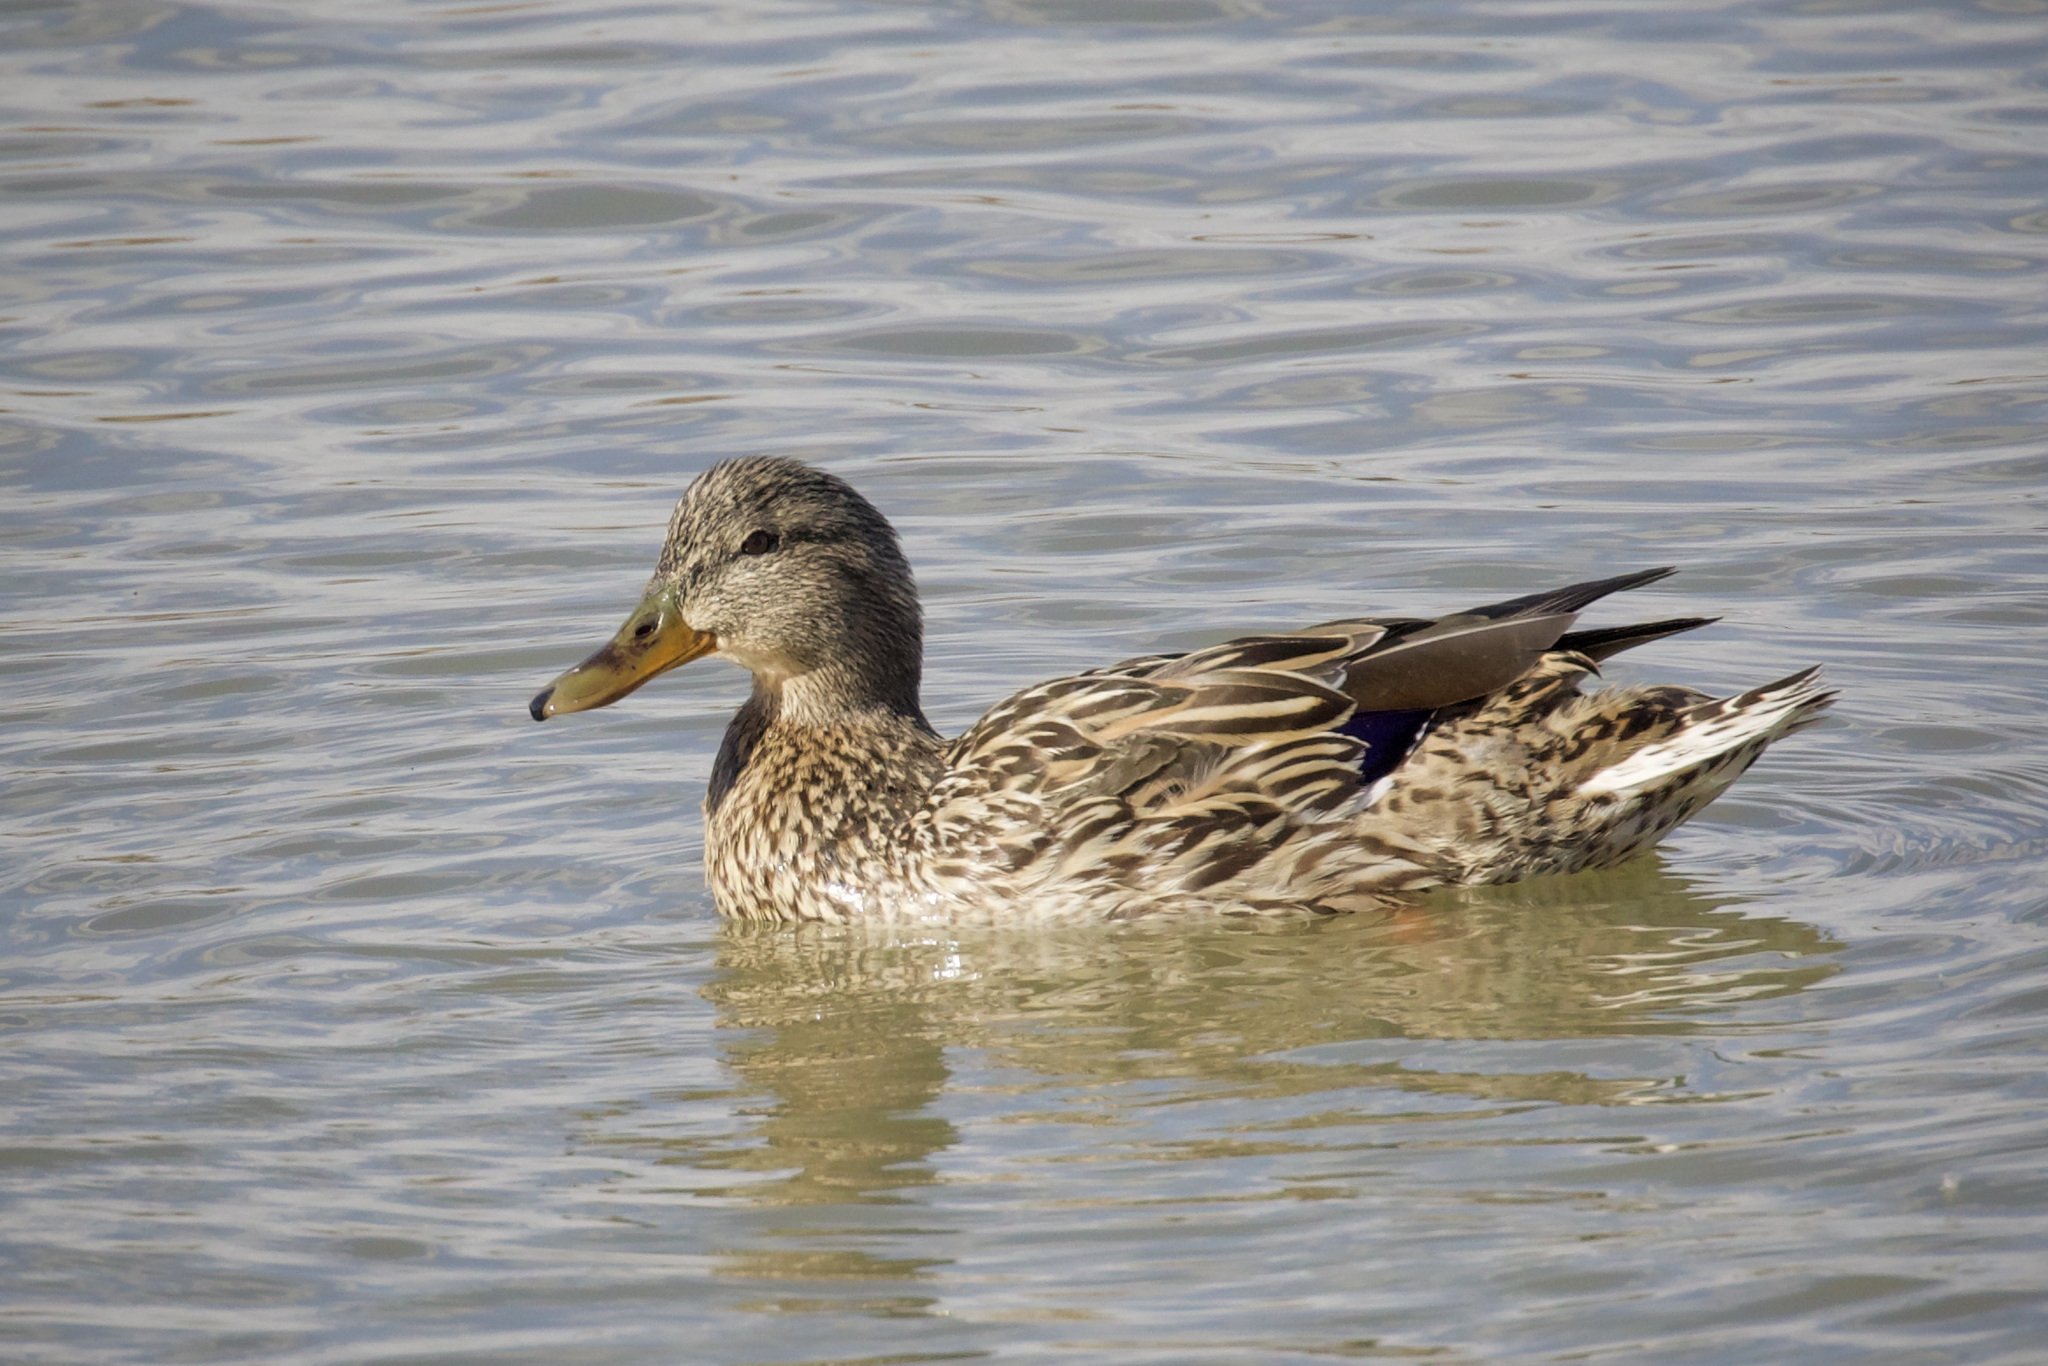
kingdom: Animalia
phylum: Chordata
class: Aves
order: Anseriformes
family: Anatidae
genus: Anas
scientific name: Anas platyrhynchos
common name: Mallard
